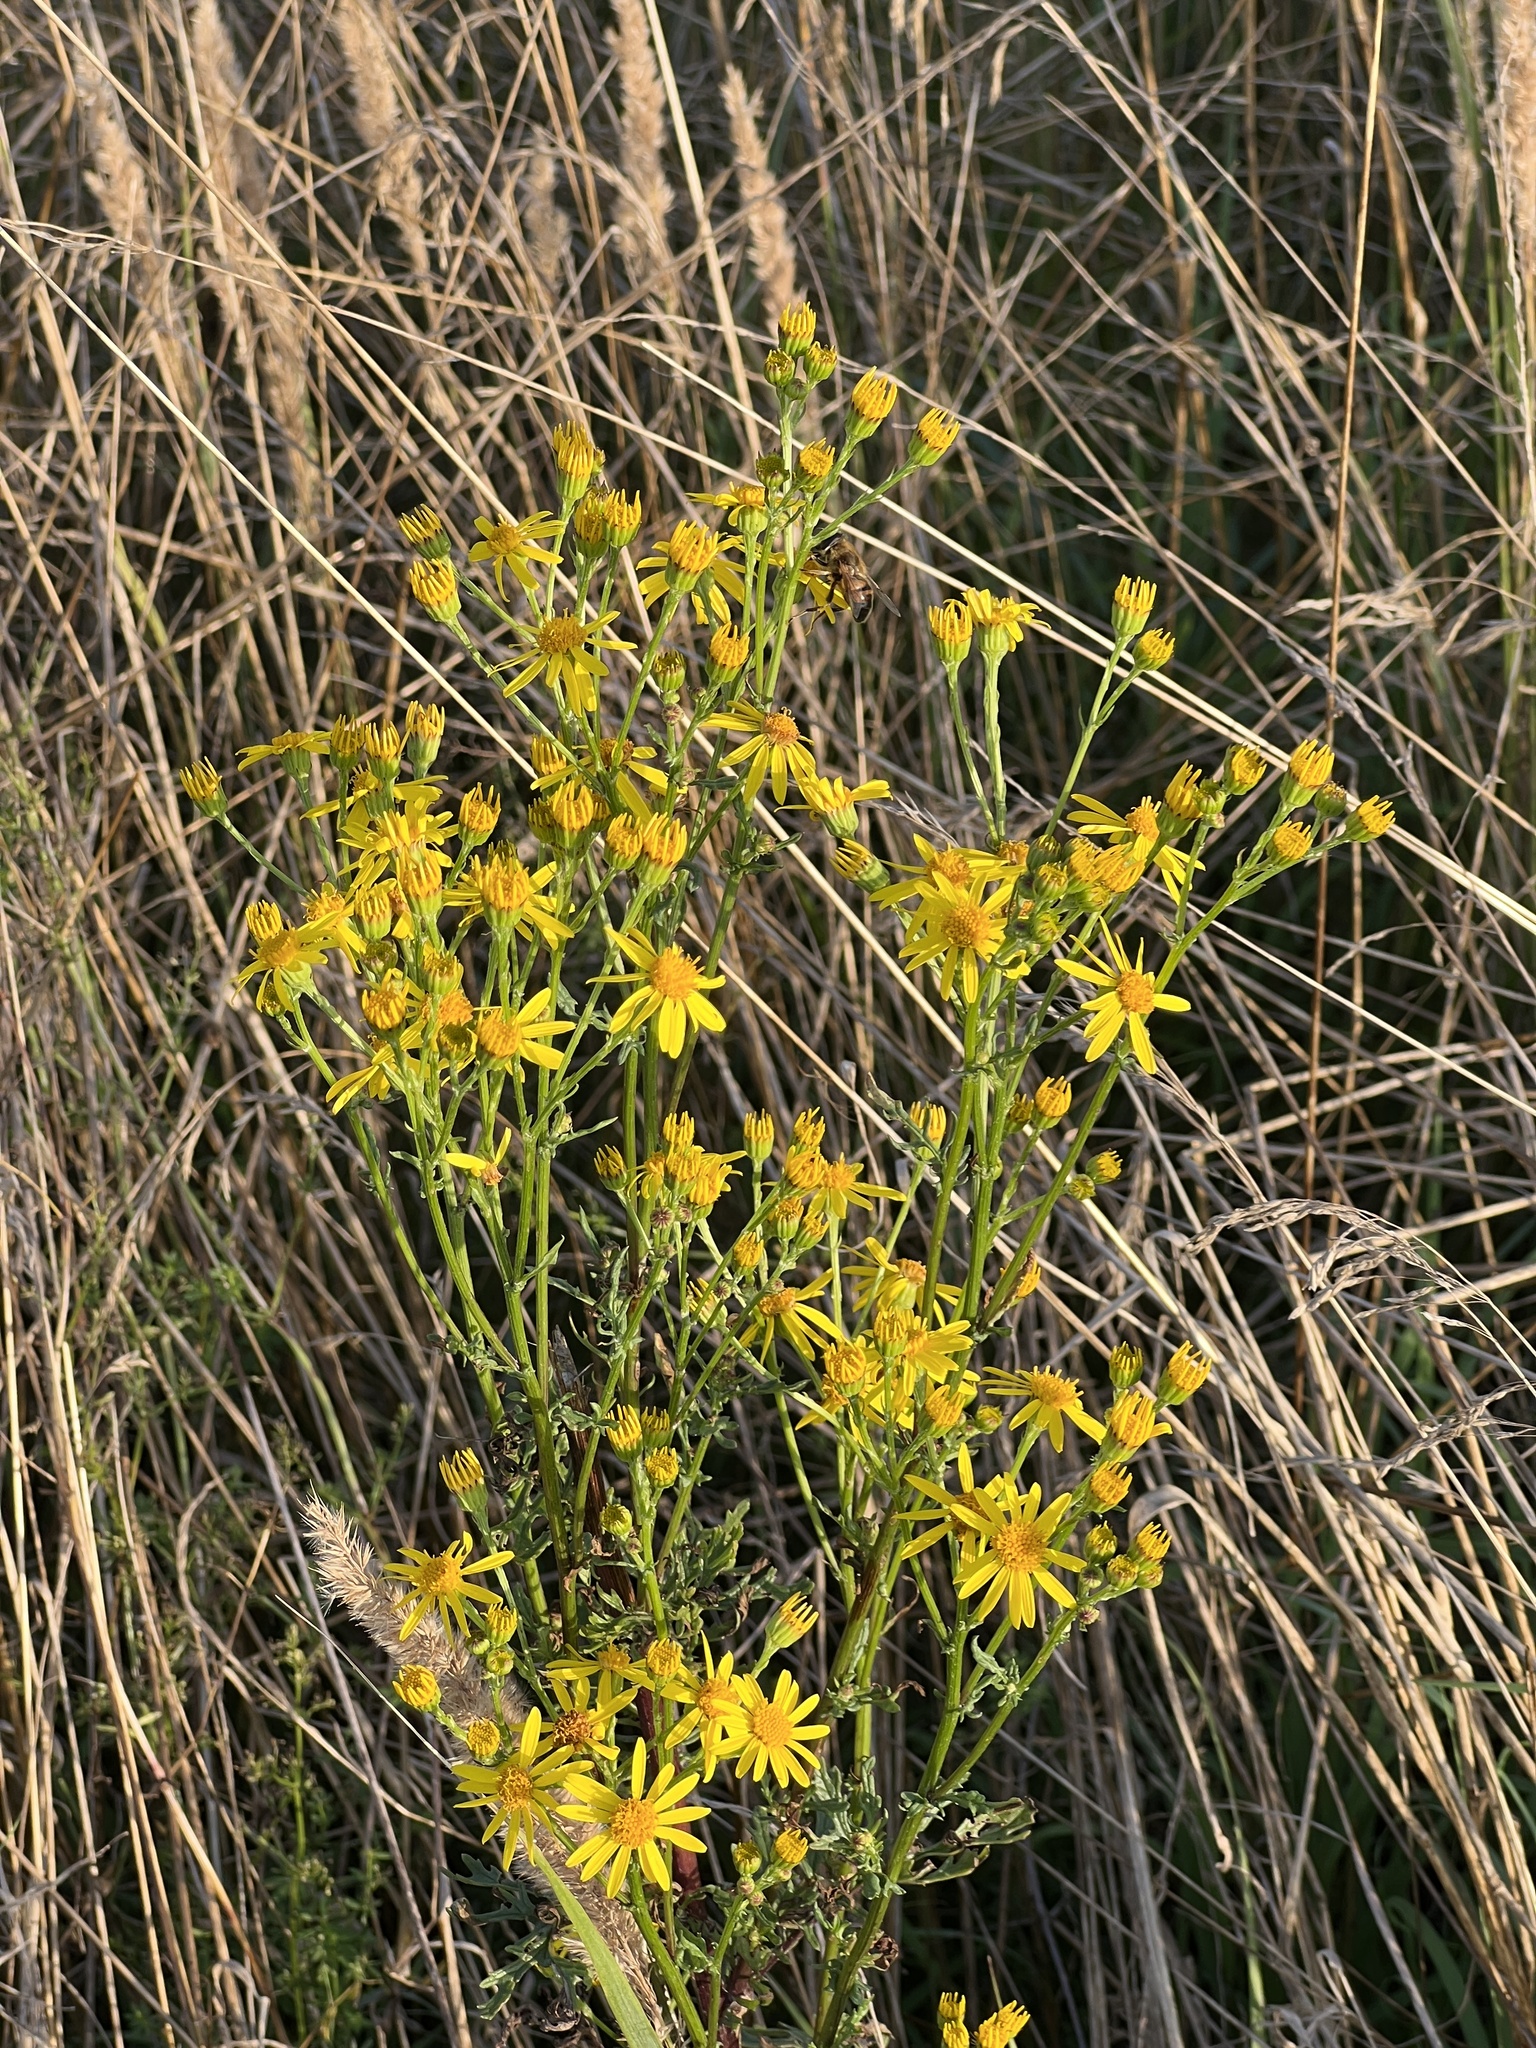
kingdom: Plantae
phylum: Tracheophyta
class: Magnoliopsida
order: Asterales
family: Asteraceae
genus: Jacobaea
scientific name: Jacobaea vulgaris
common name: Stinking willie
